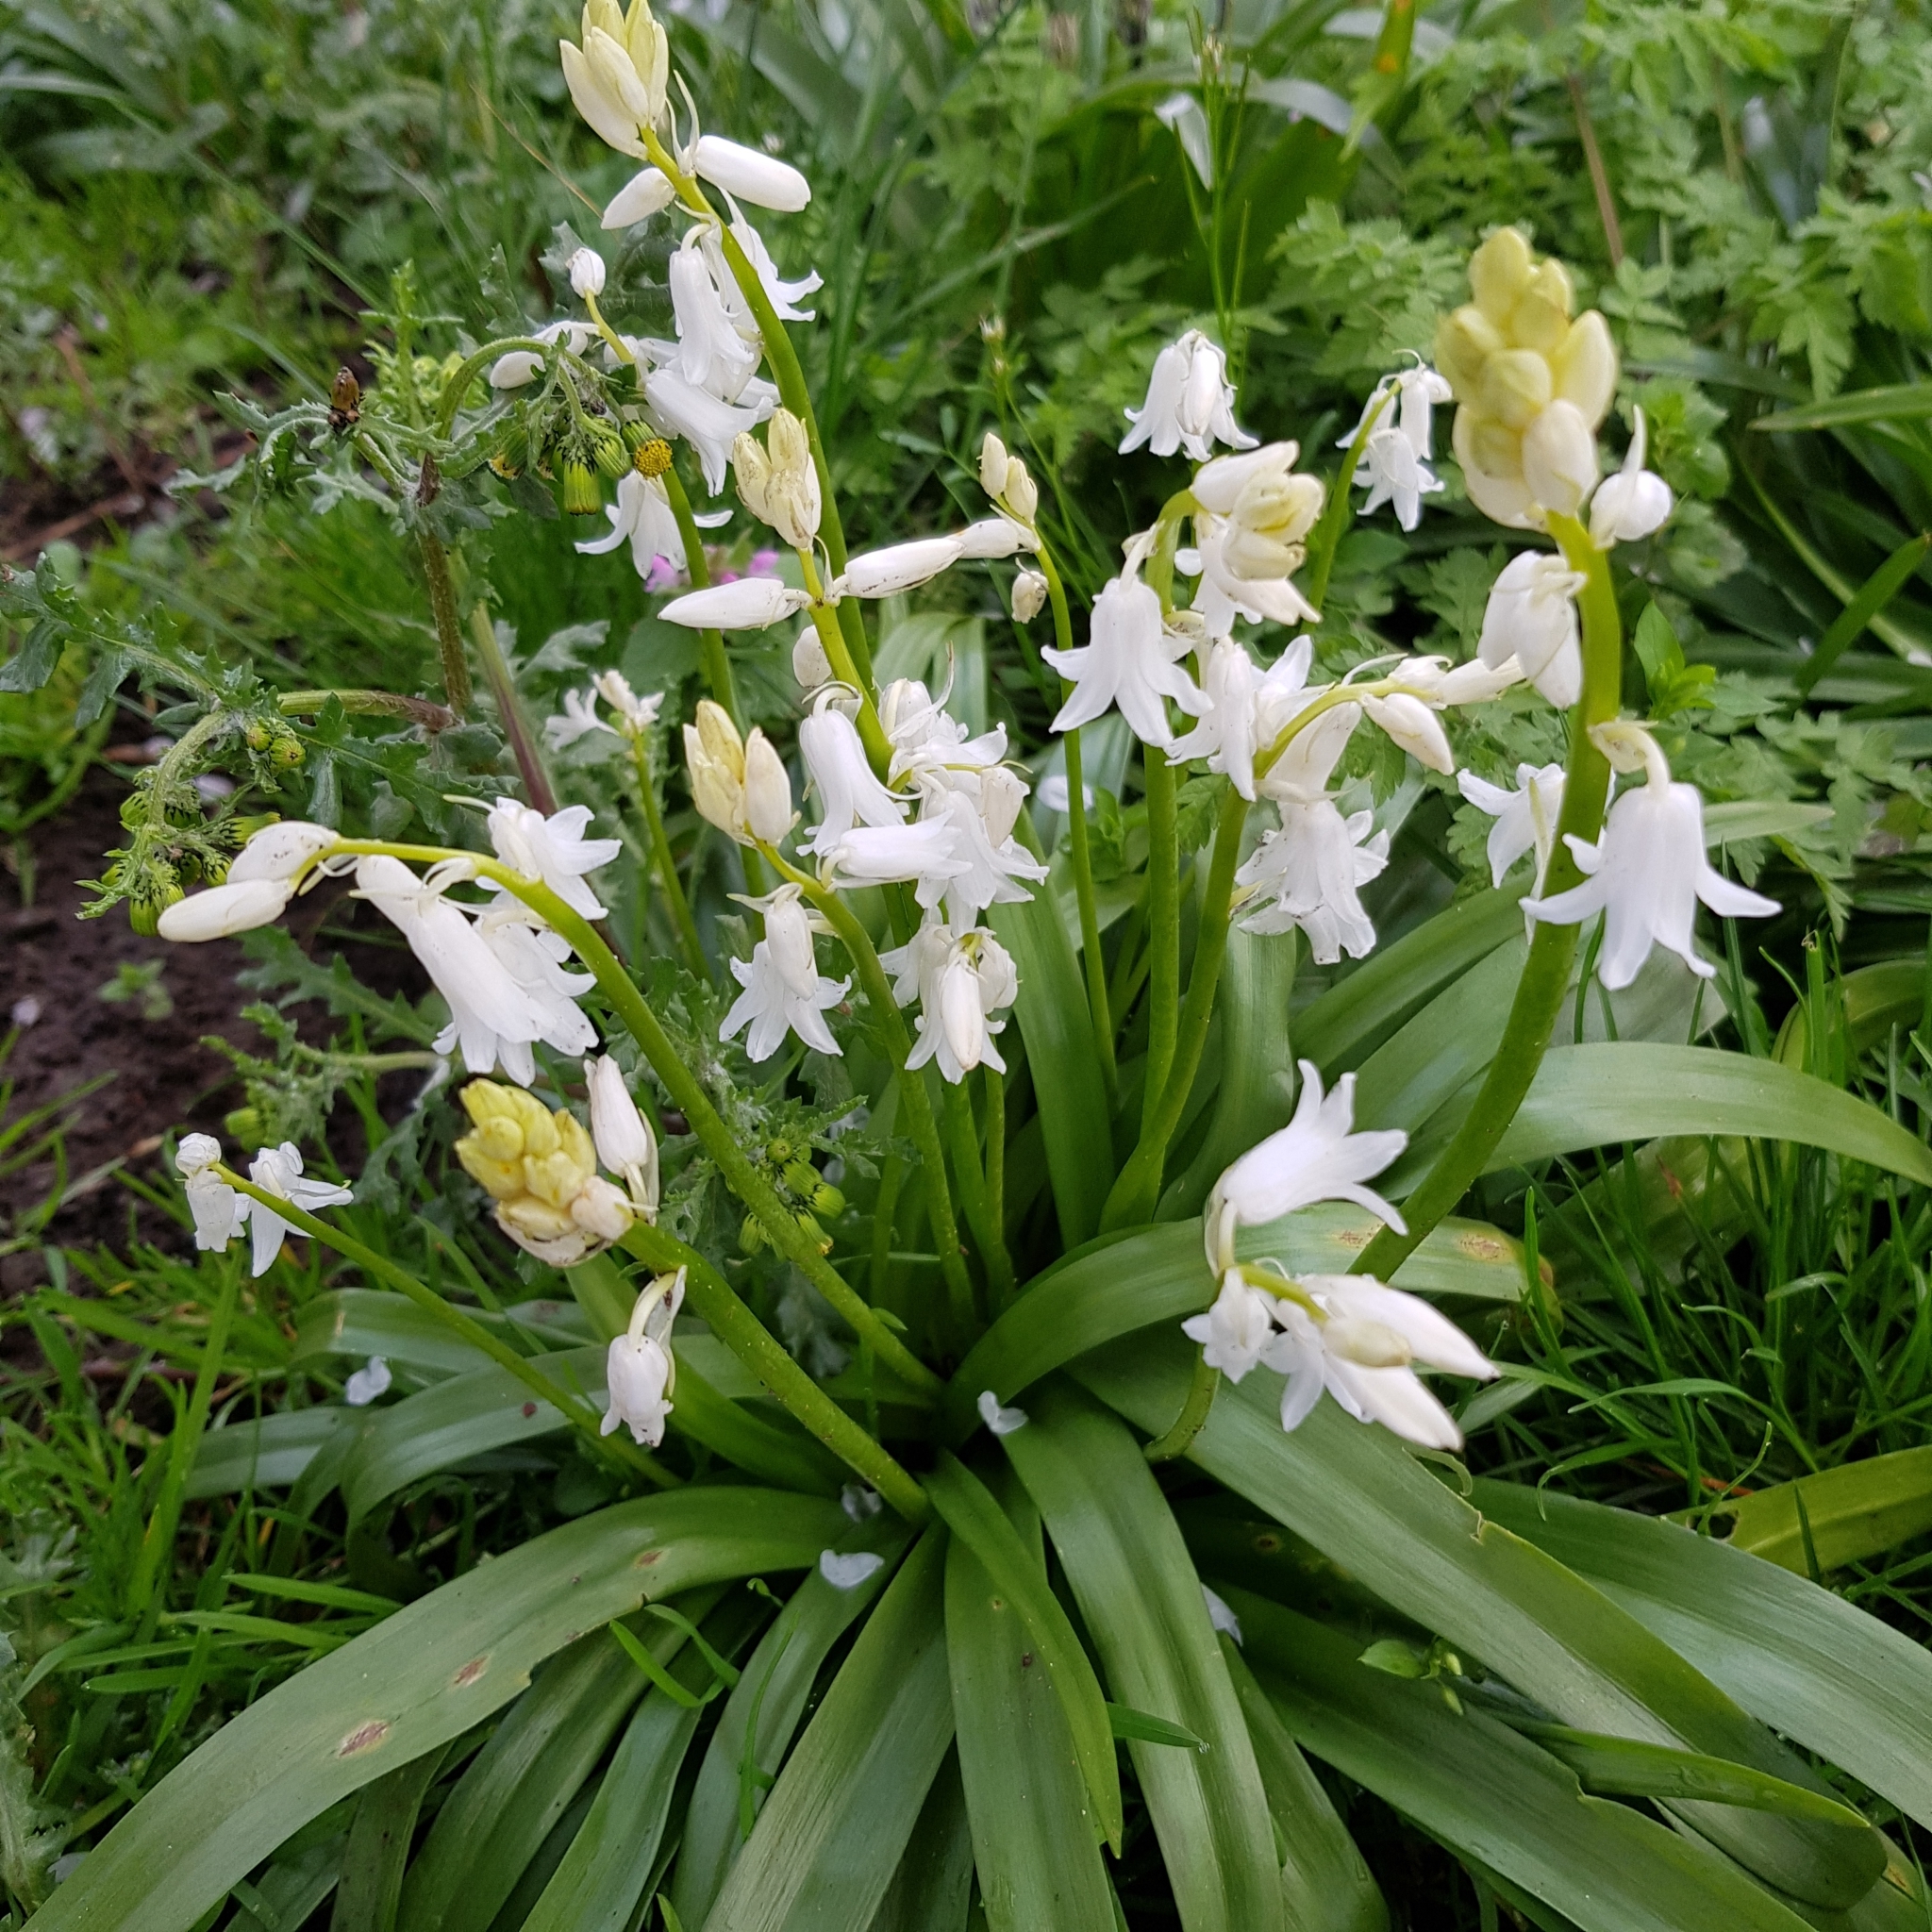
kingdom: Plantae
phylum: Tracheophyta
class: Liliopsida
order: Asparagales
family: Asparagaceae
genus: Hyacinthoides
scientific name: Hyacinthoides massartiana
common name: Hyacinthoides
